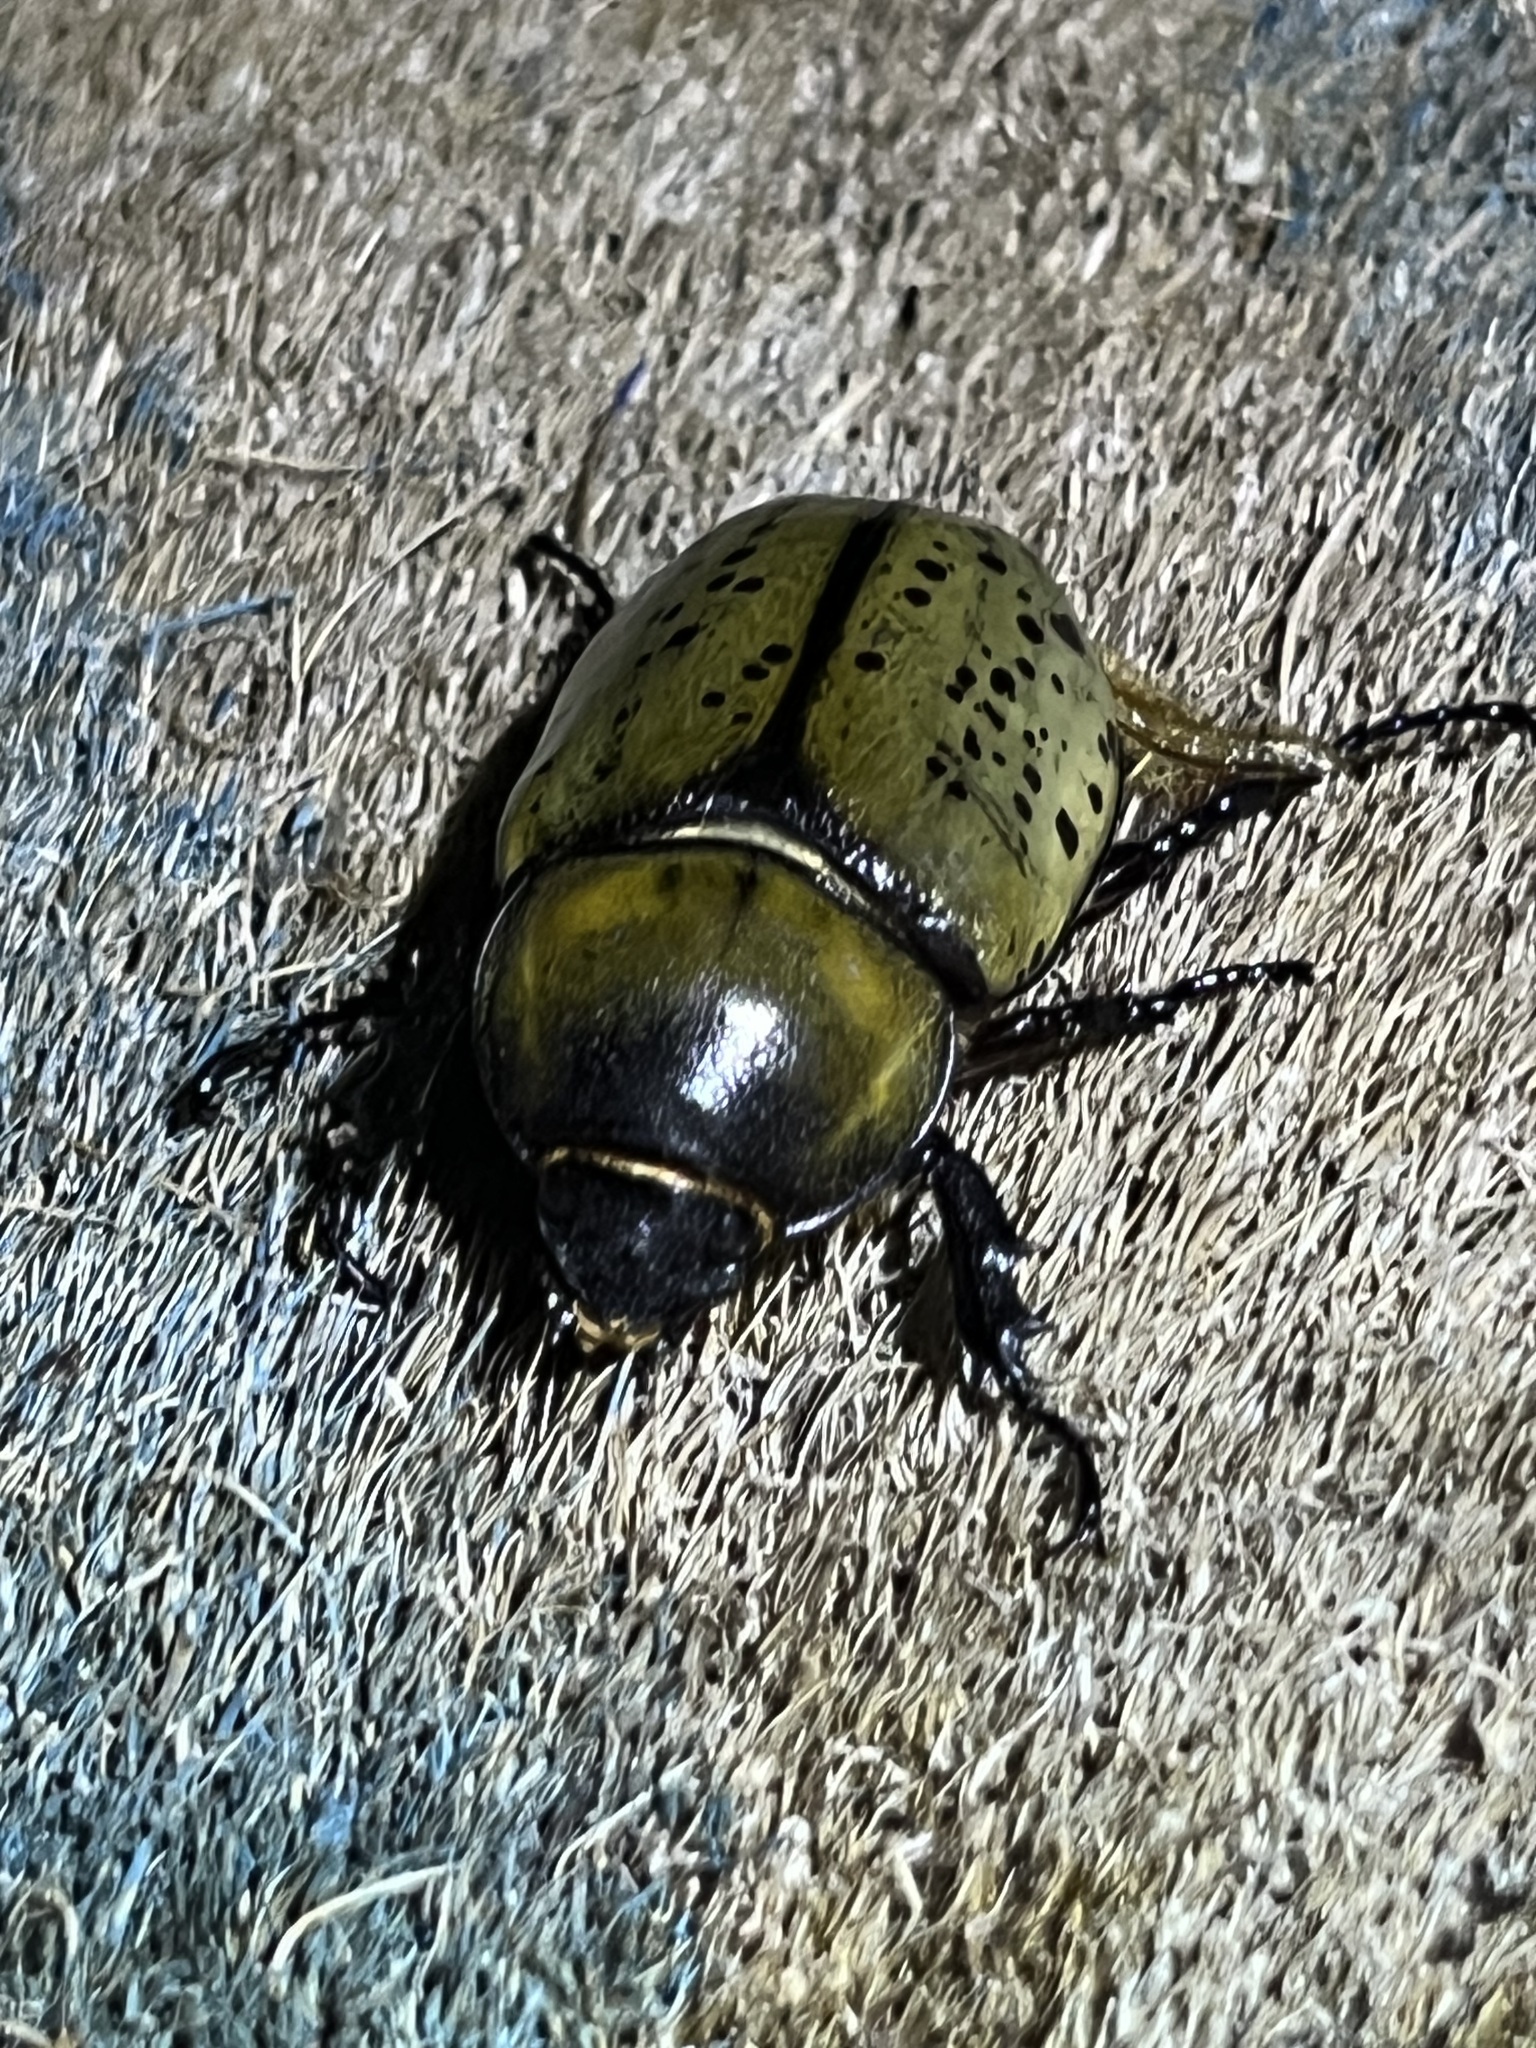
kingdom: Animalia
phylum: Arthropoda
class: Insecta
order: Coleoptera
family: Scarabaeidae
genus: Dynastes
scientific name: Dynastes tityus
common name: Eastern hercules beetle
